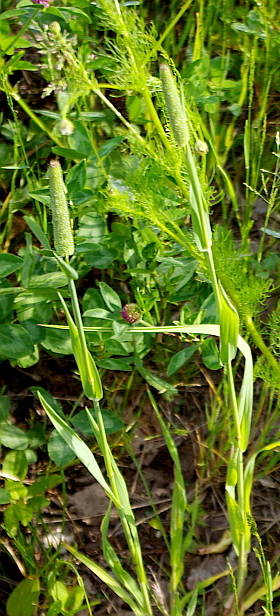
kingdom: Plantae
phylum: Tracheophyta
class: Liliopsida
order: Poales
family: Poaceae
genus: Phleum
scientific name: Phleum pratense
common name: Timothy grass
